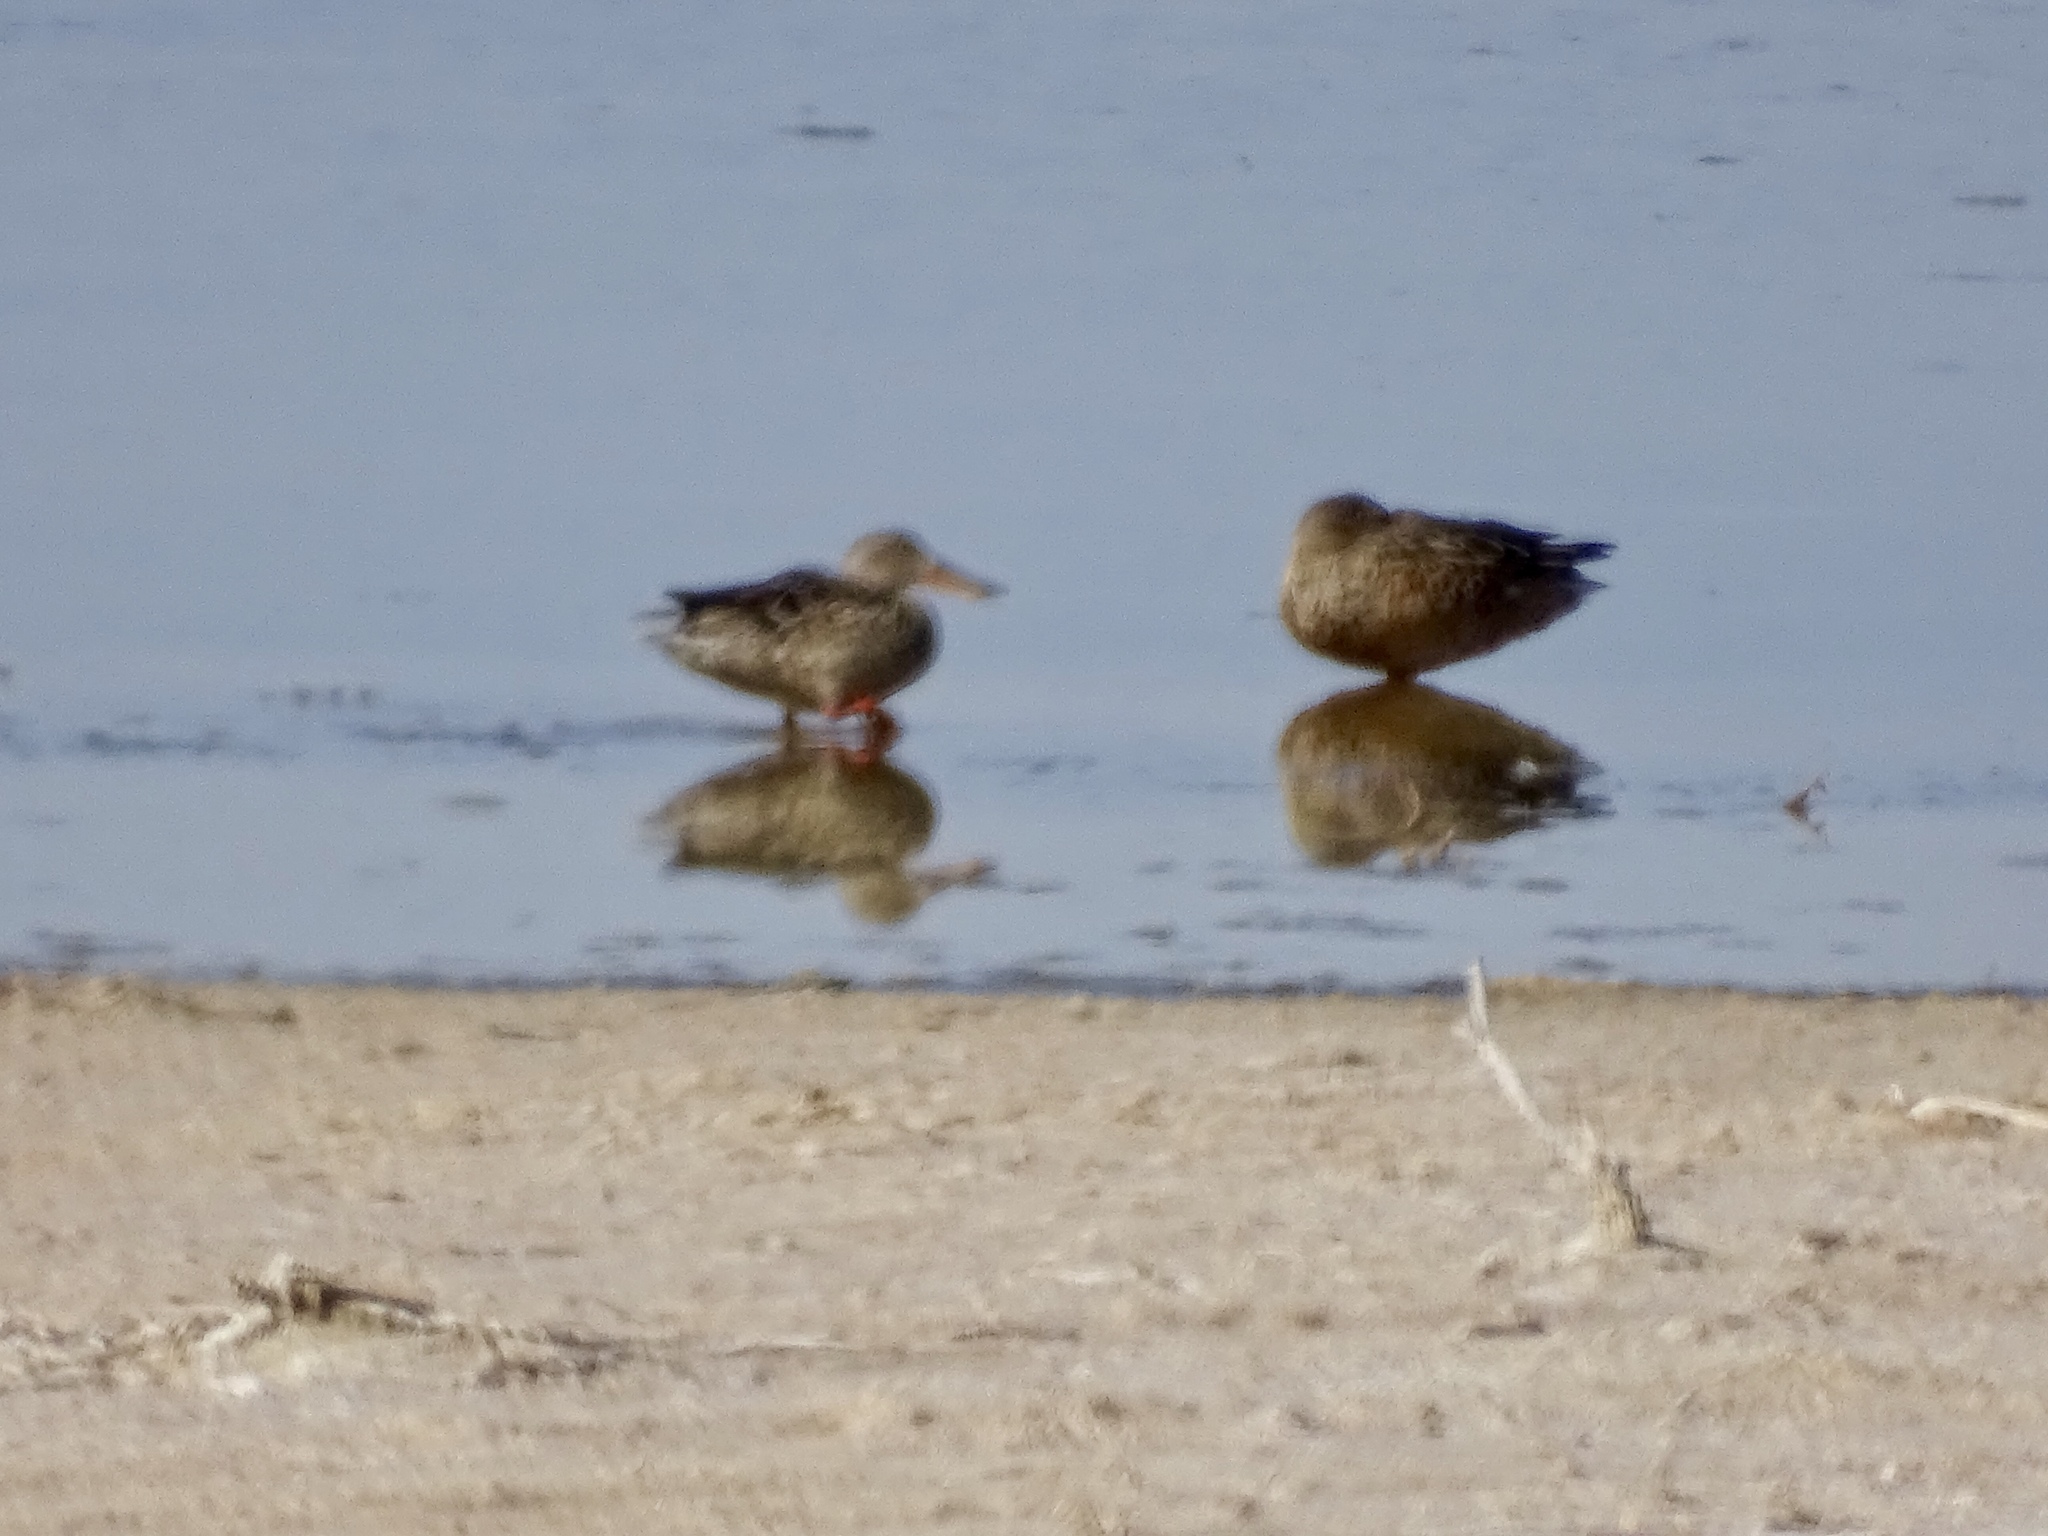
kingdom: Animalia
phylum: Chordata
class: Aves
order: Anseriformes
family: Anatidae
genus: Spatula
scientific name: Spatula clypeata
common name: Northern shoveler
